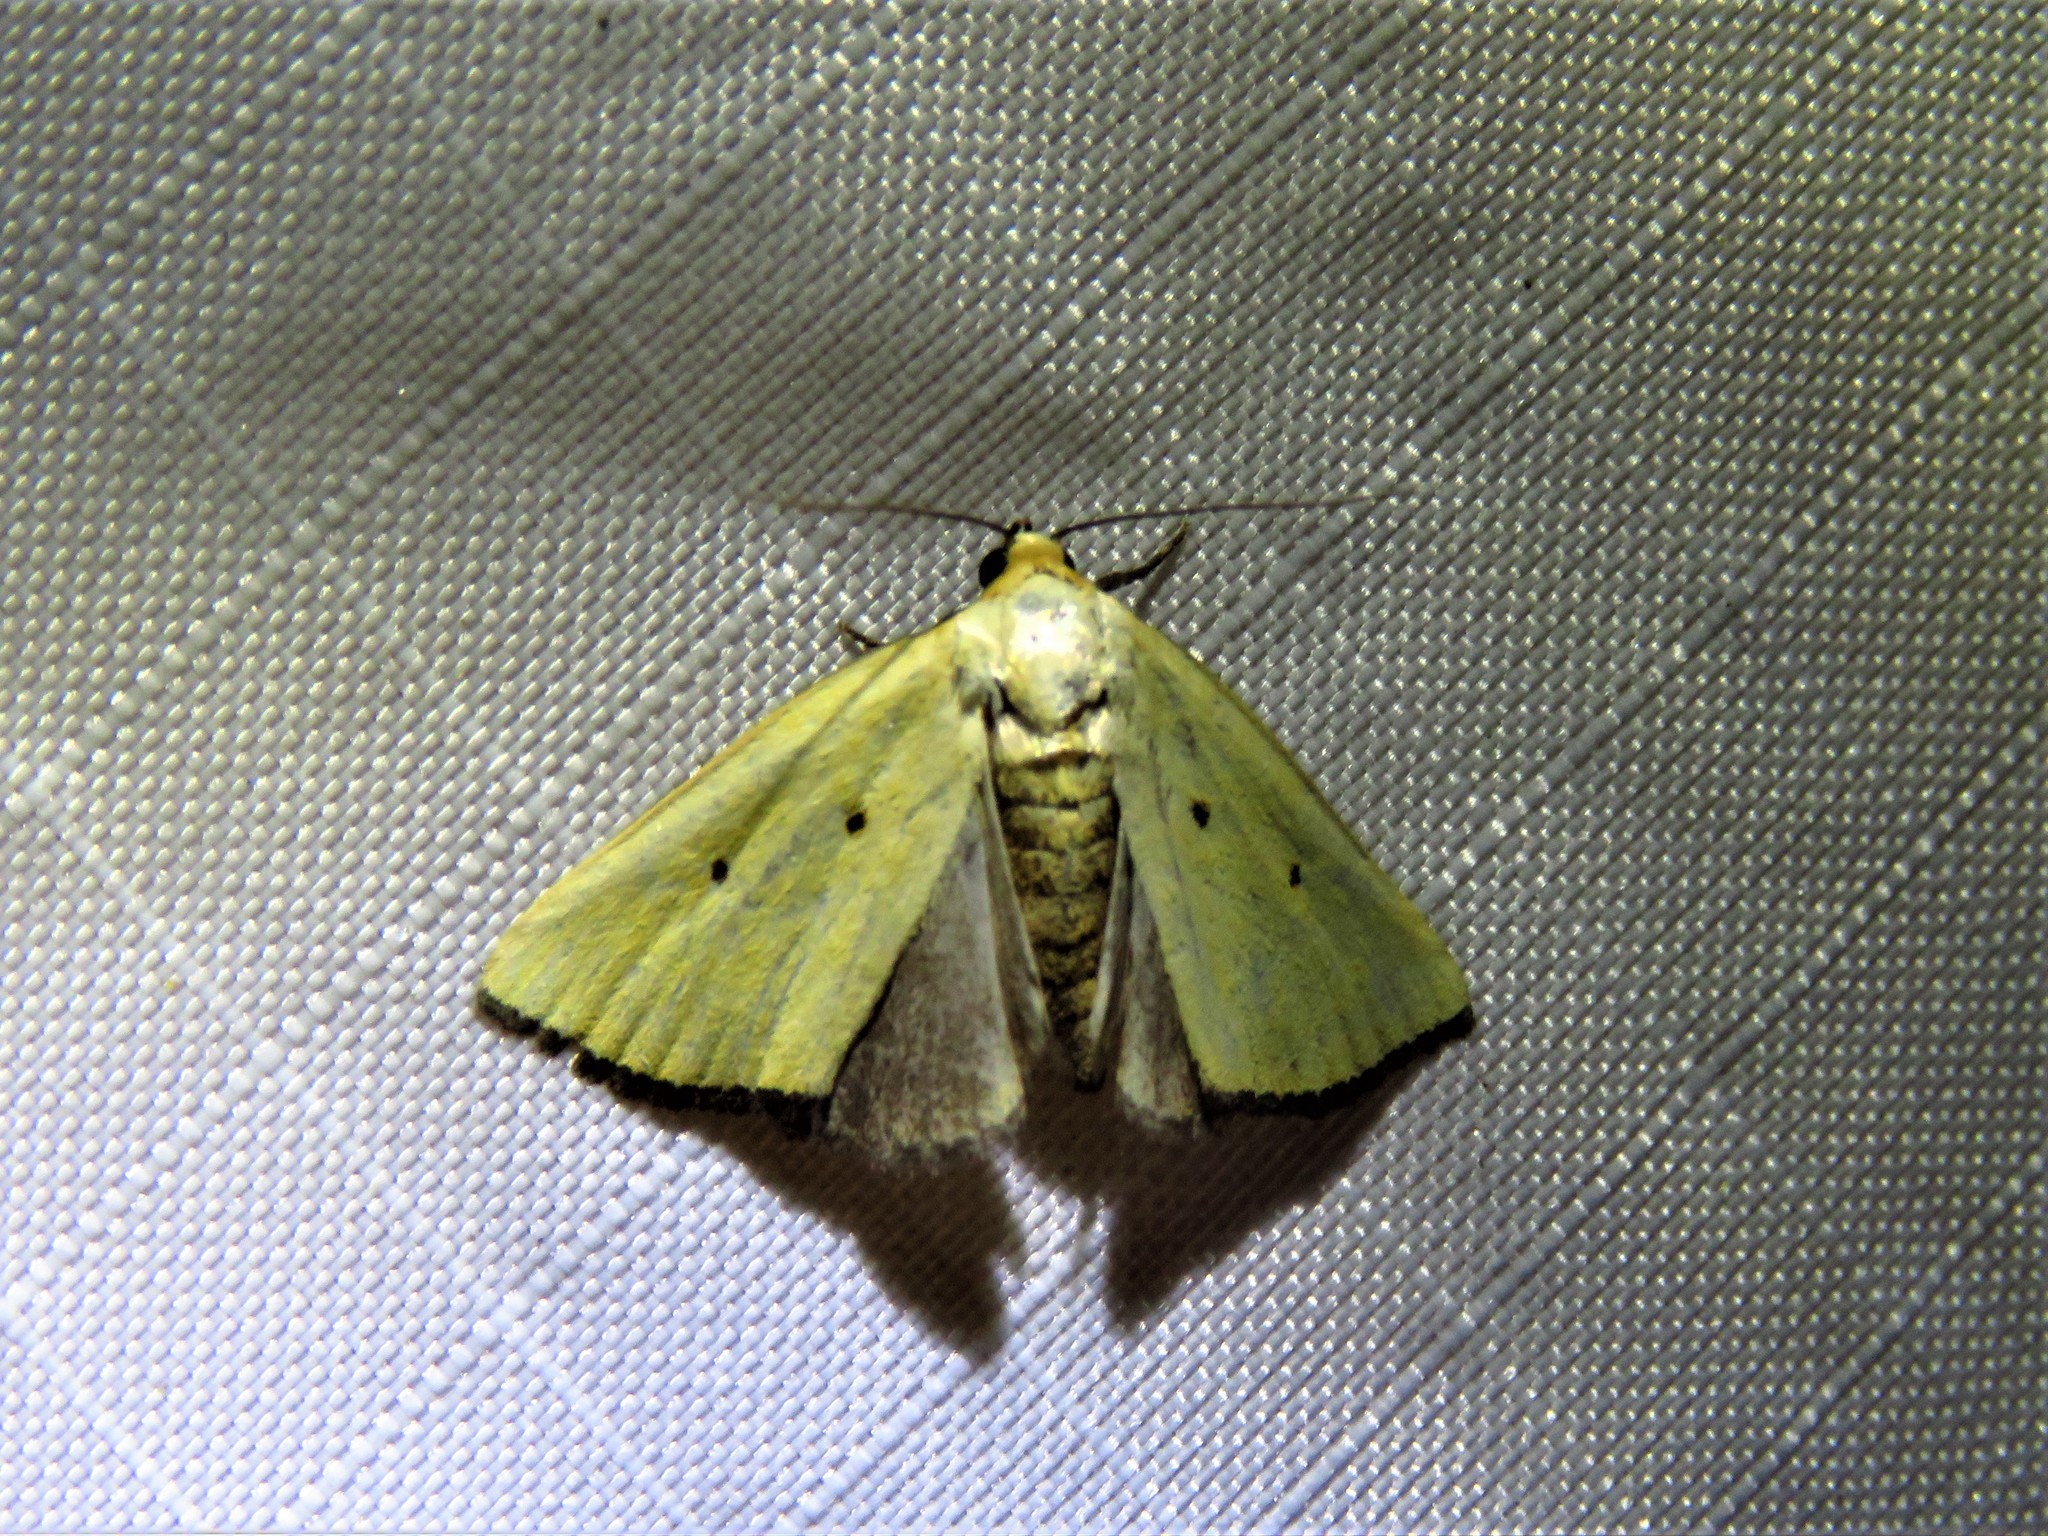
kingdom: Animalia
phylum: Arthropoda
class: Insecta
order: Lepidoptera
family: Noctuidae
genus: Marimatha
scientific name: Marimatha nigrofimbria
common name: Black-bordered lemon moth
